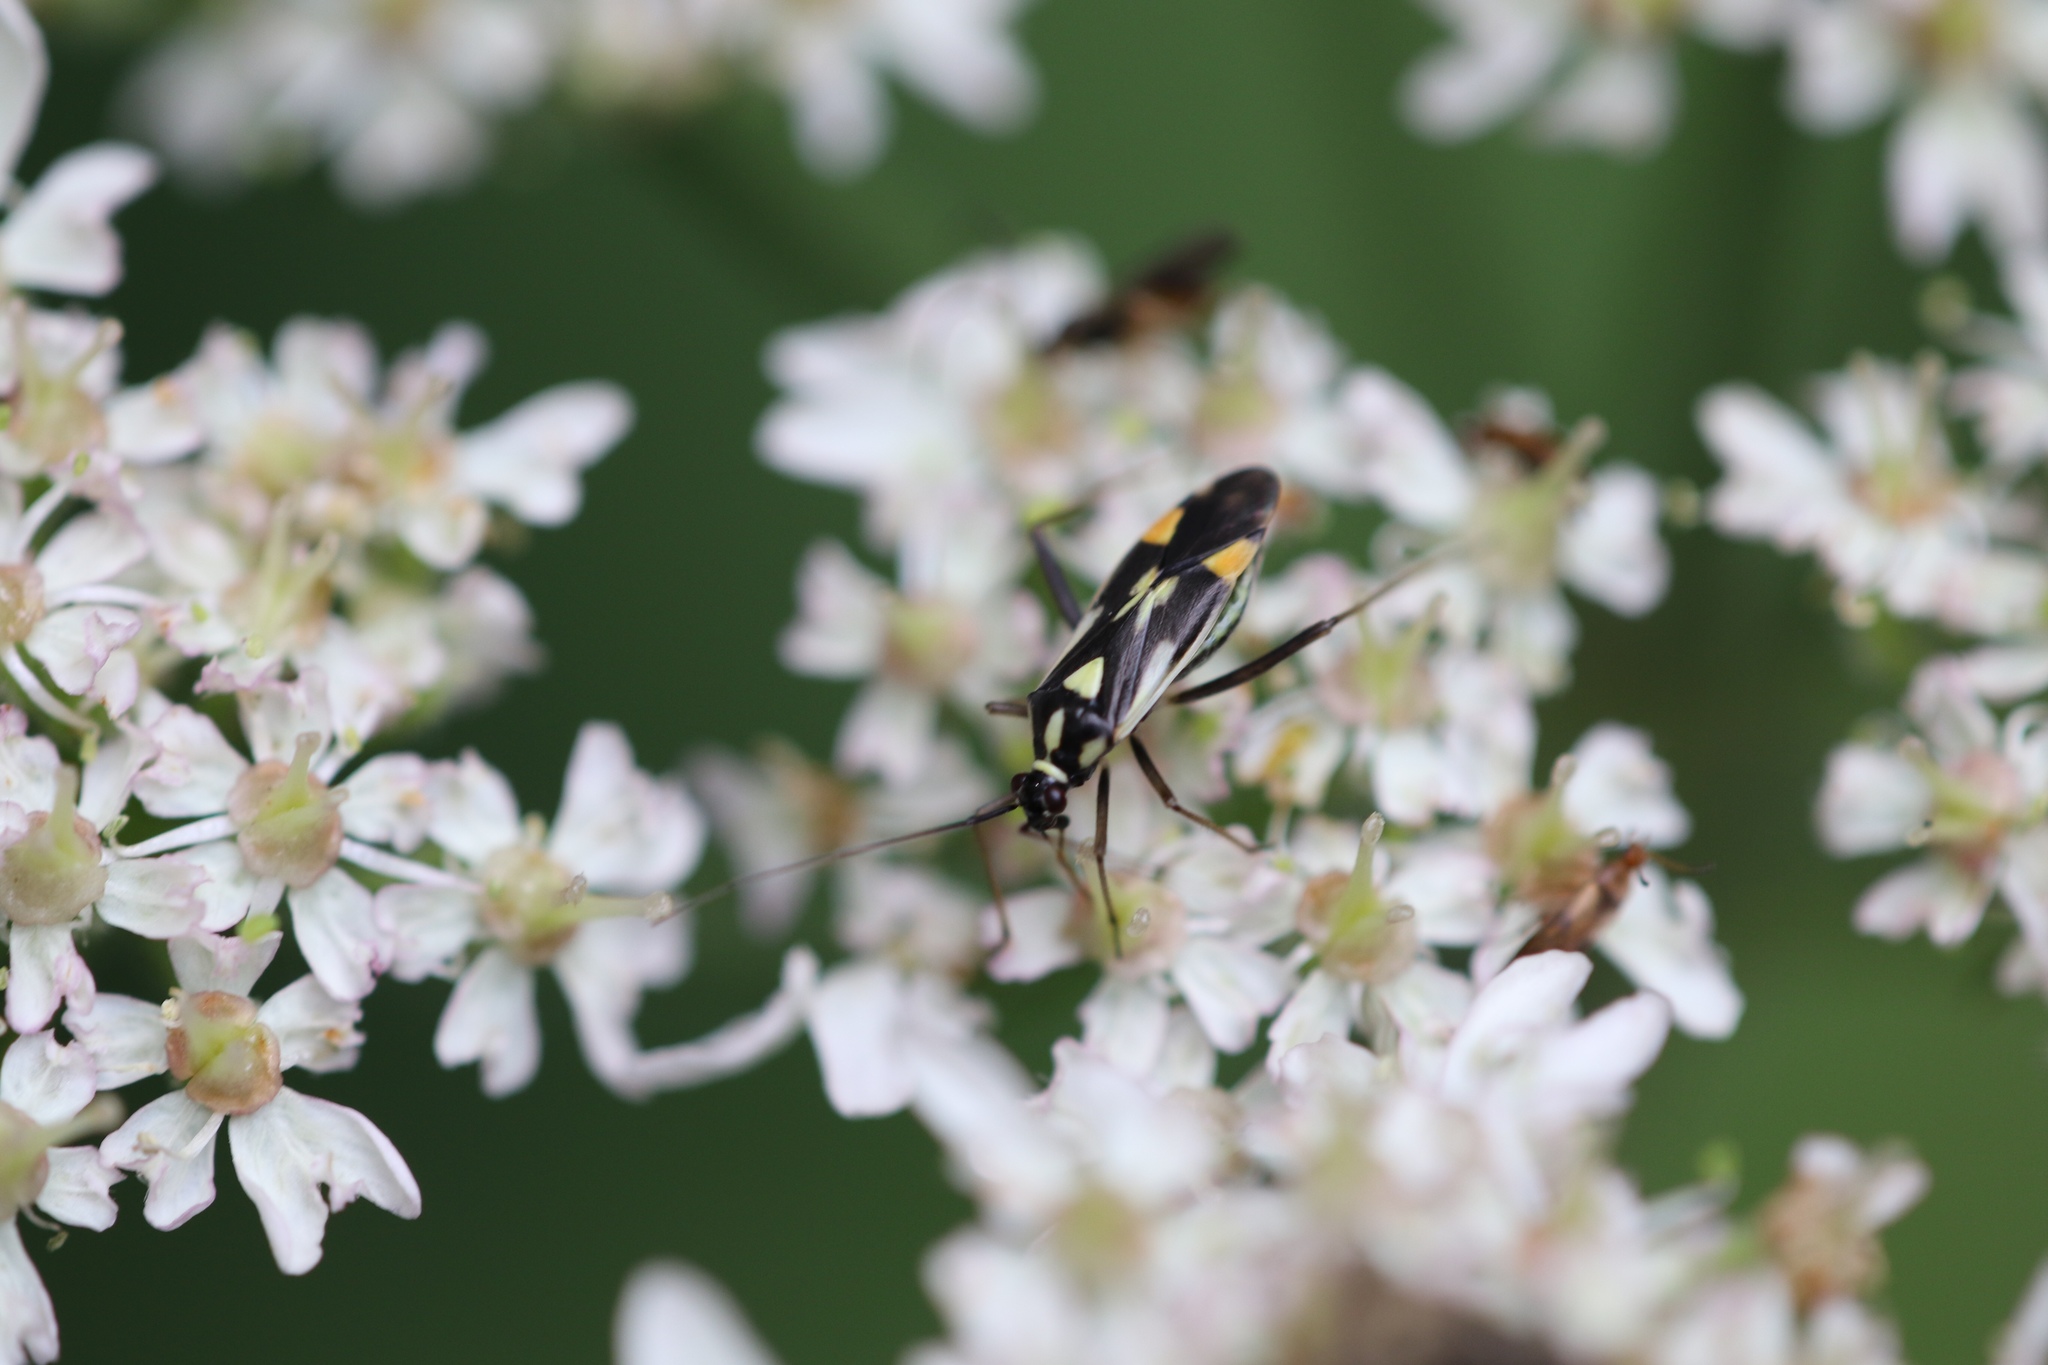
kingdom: Animalia
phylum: Arthropoda
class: Insecta
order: Hemiptera
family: Miridae
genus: Grypocoris
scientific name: Grypocoris stysi
